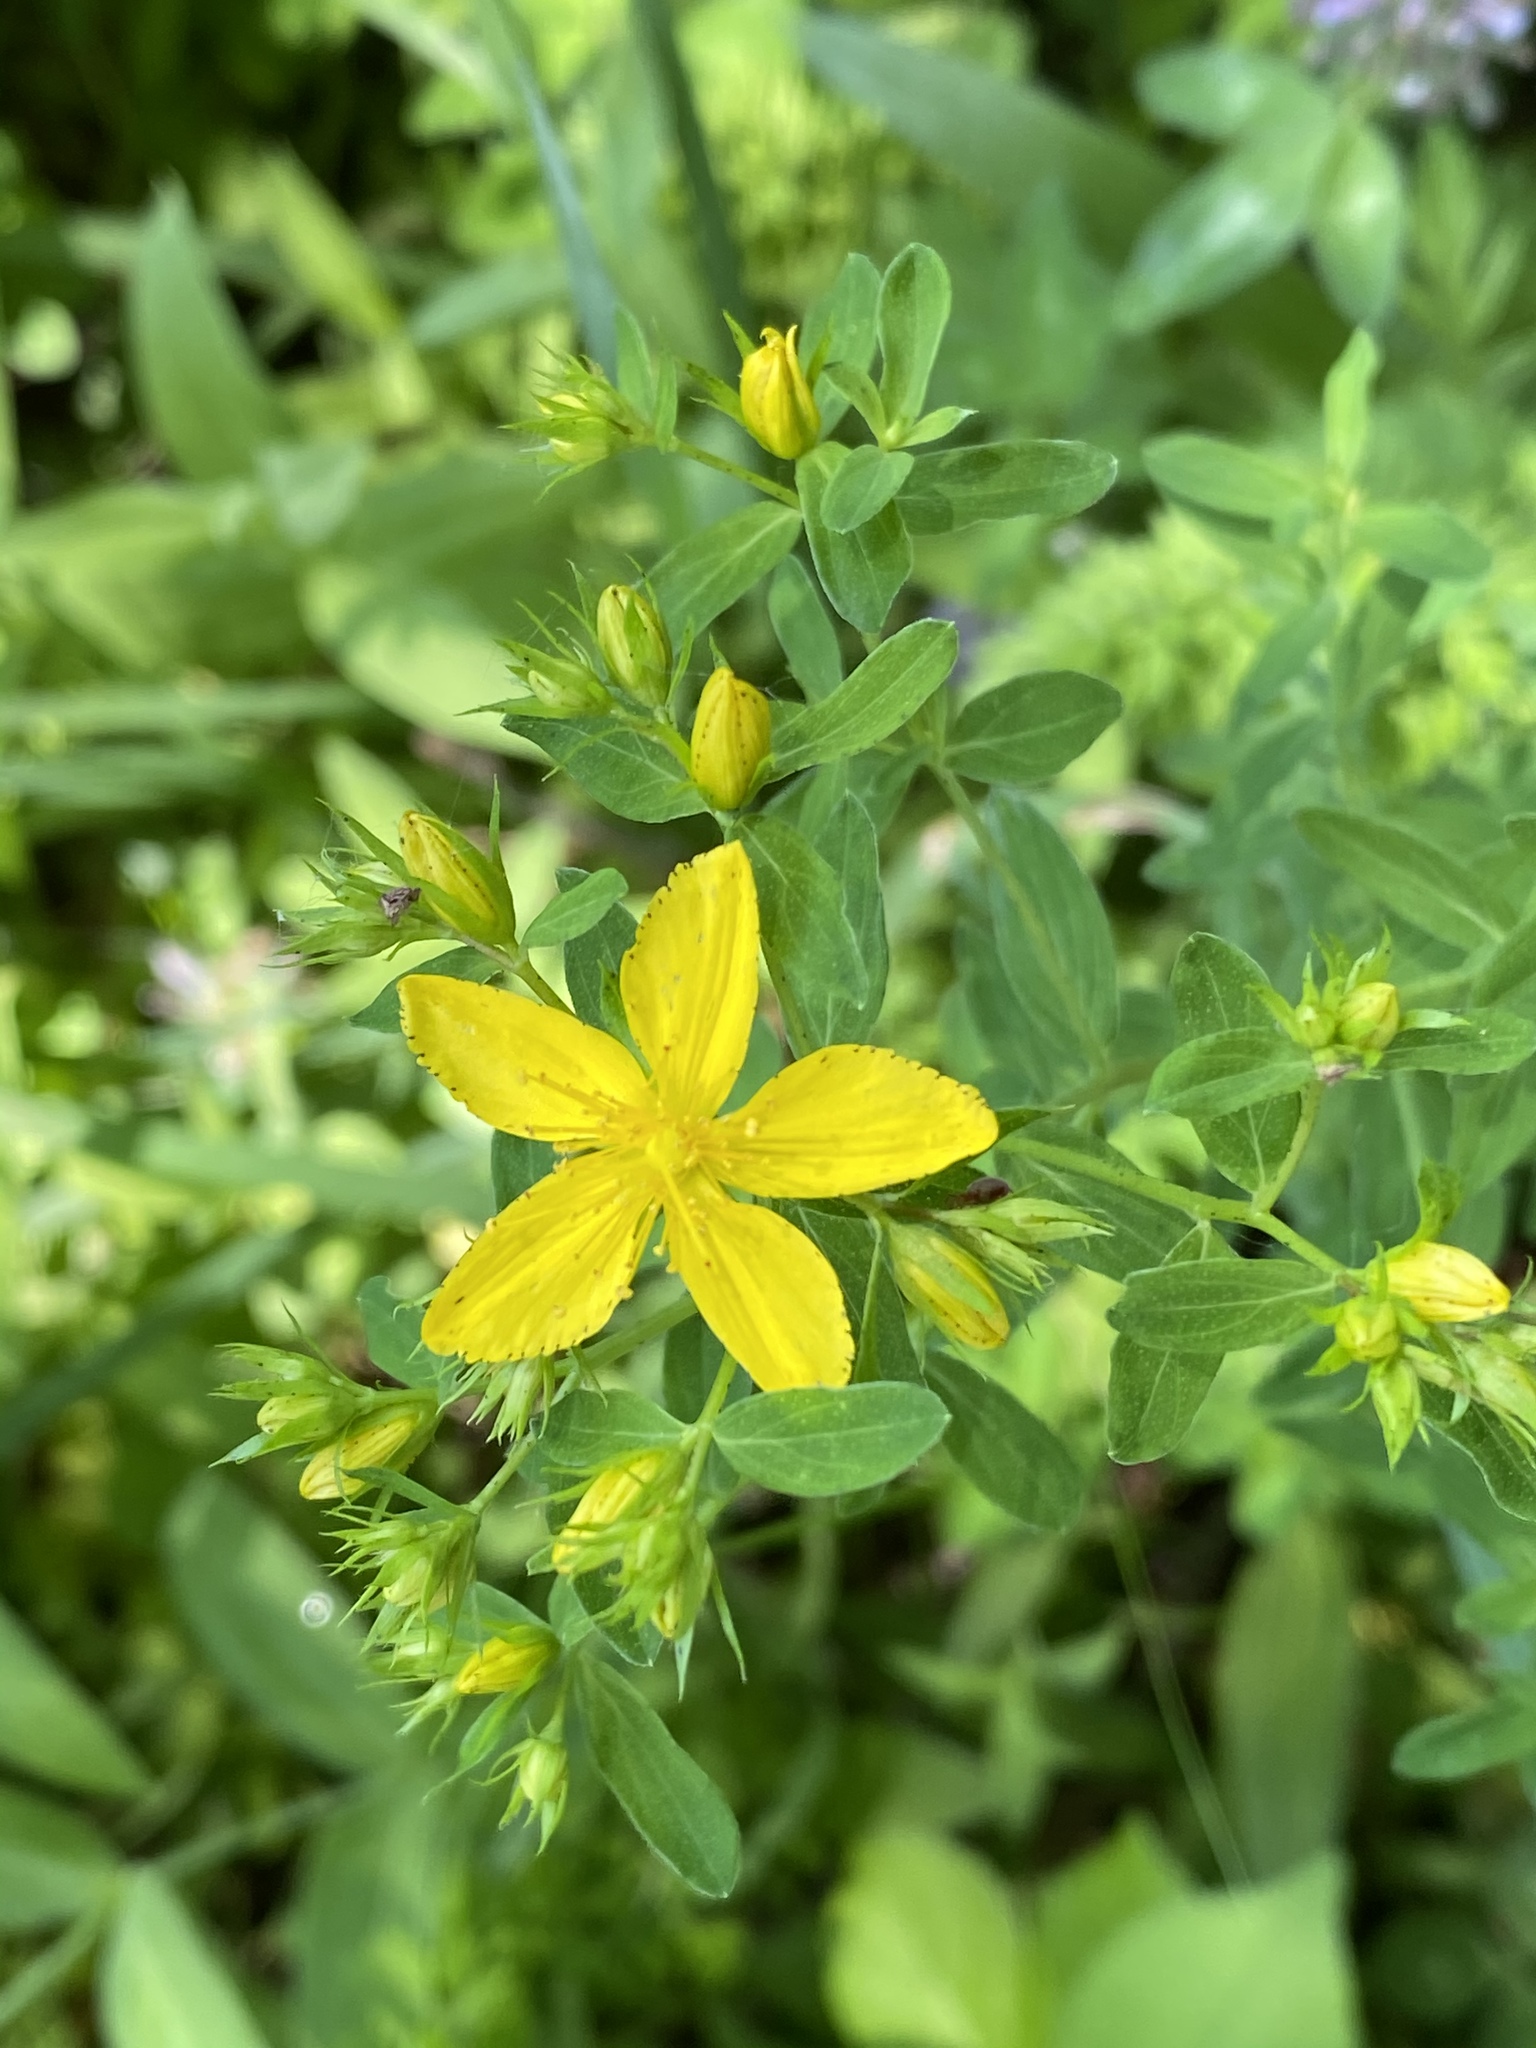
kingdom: Plantae
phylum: Tracheophyta
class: Magnoliopsida
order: Malpighiales
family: Hypericaceae
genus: Hypericum
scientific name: Hypericum perforatum
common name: Common st. johnswort
